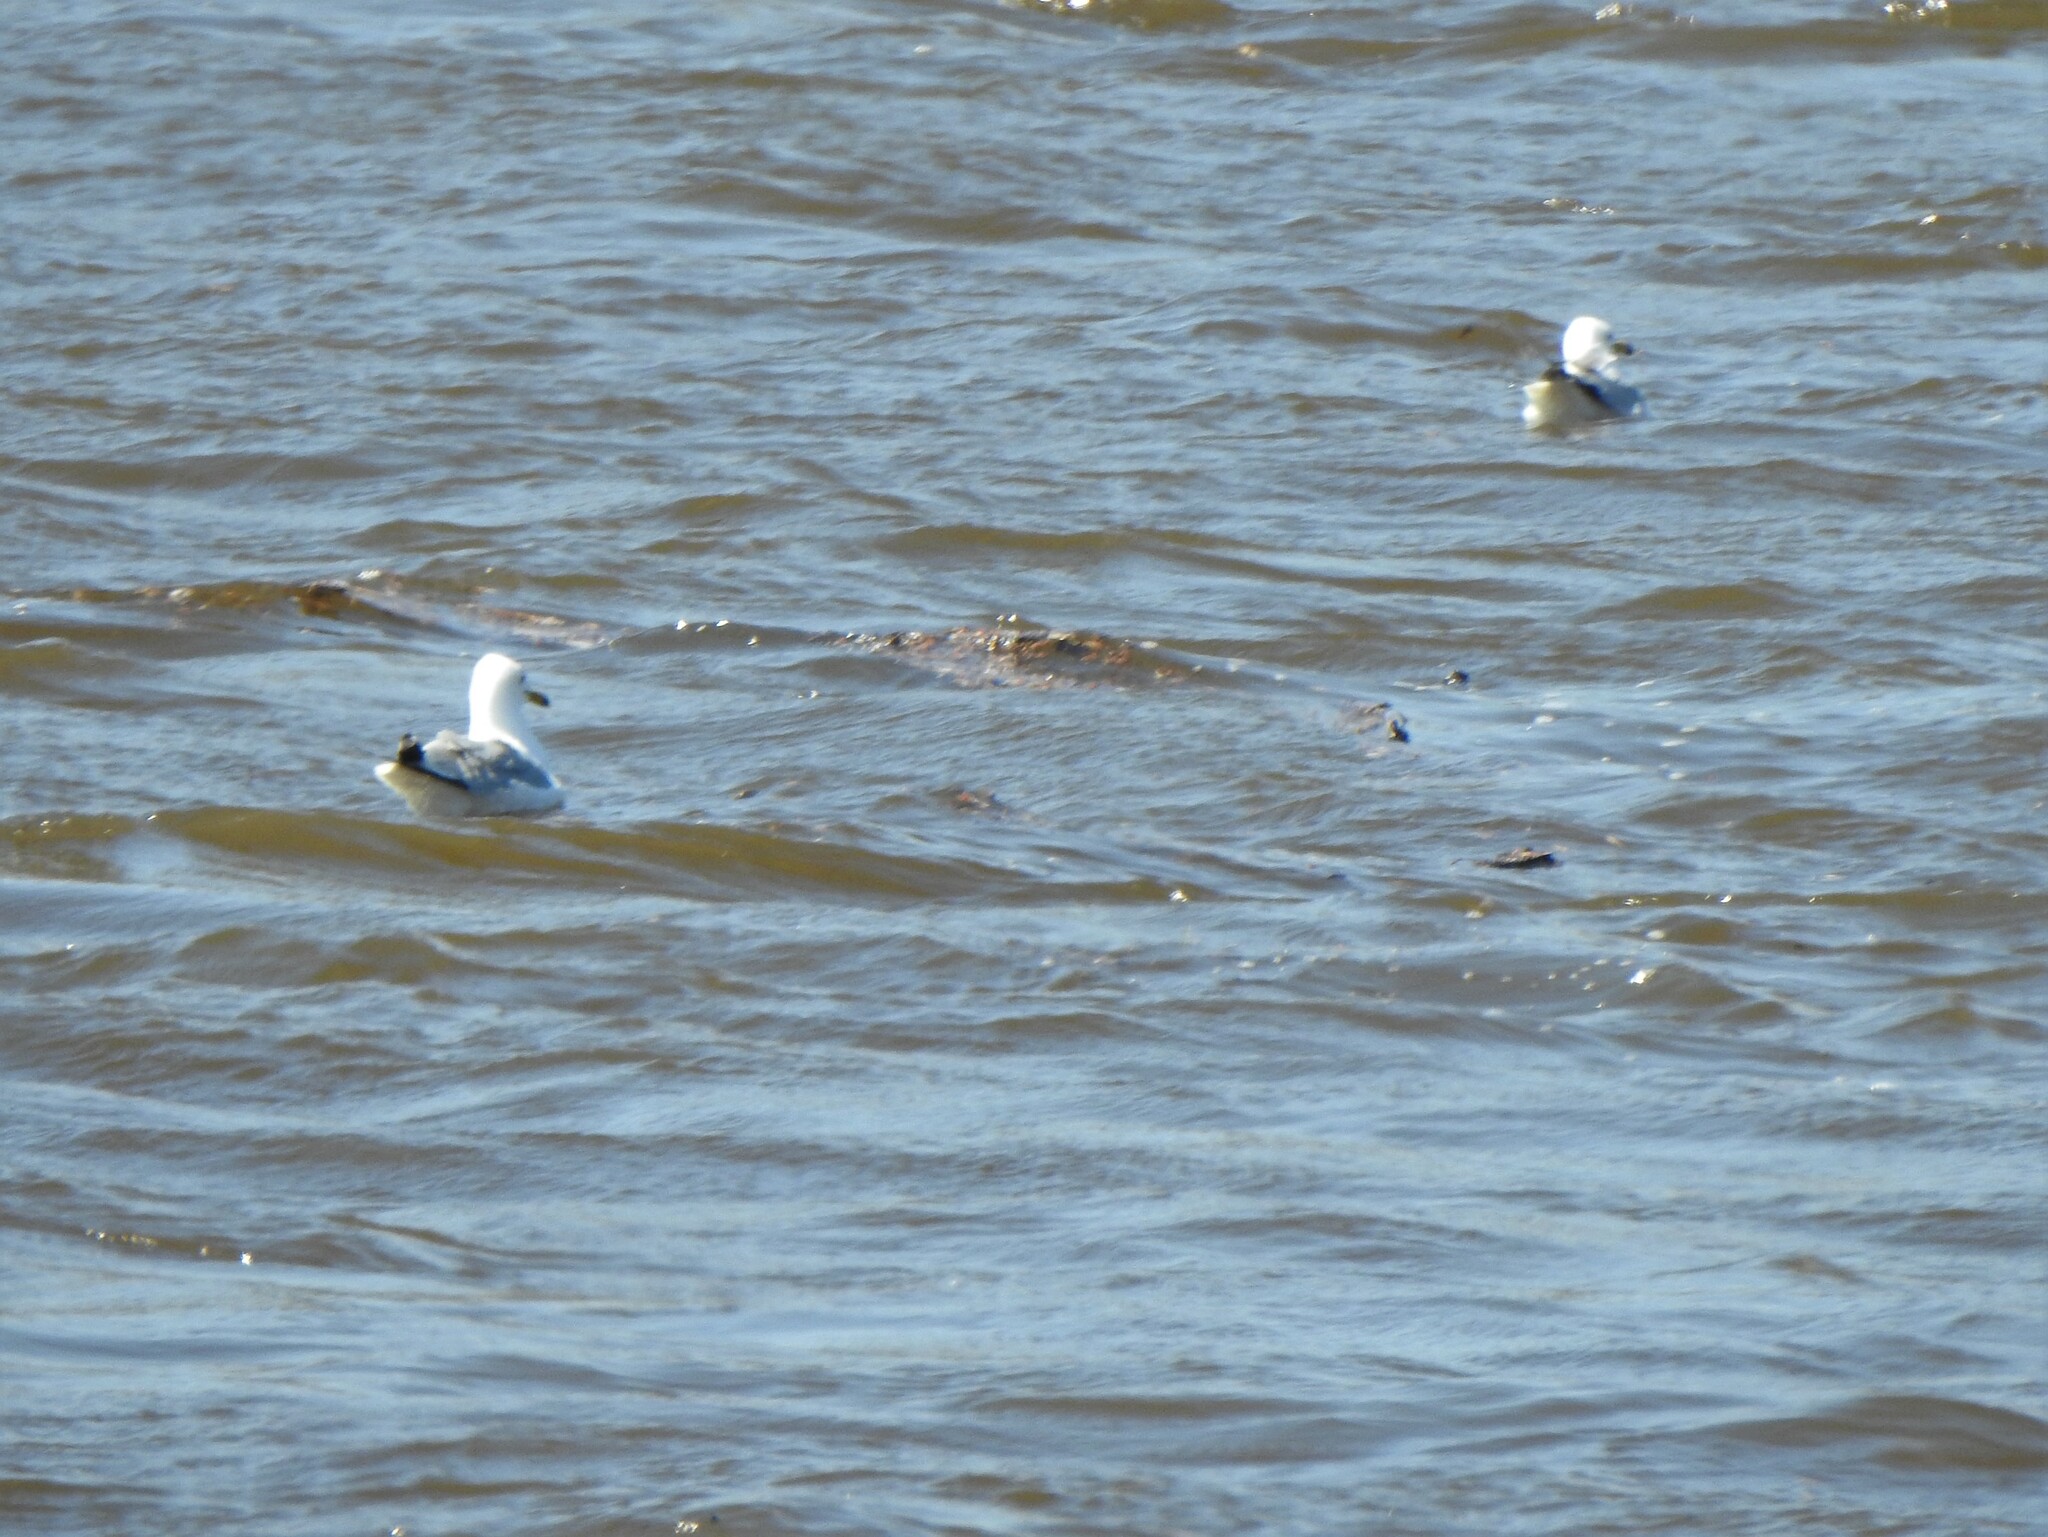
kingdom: Animalia
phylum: Chordata
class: Aves
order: Charadriiformes
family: Laridae
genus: Larus
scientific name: Larus delawarensis
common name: Ring-billed gull
